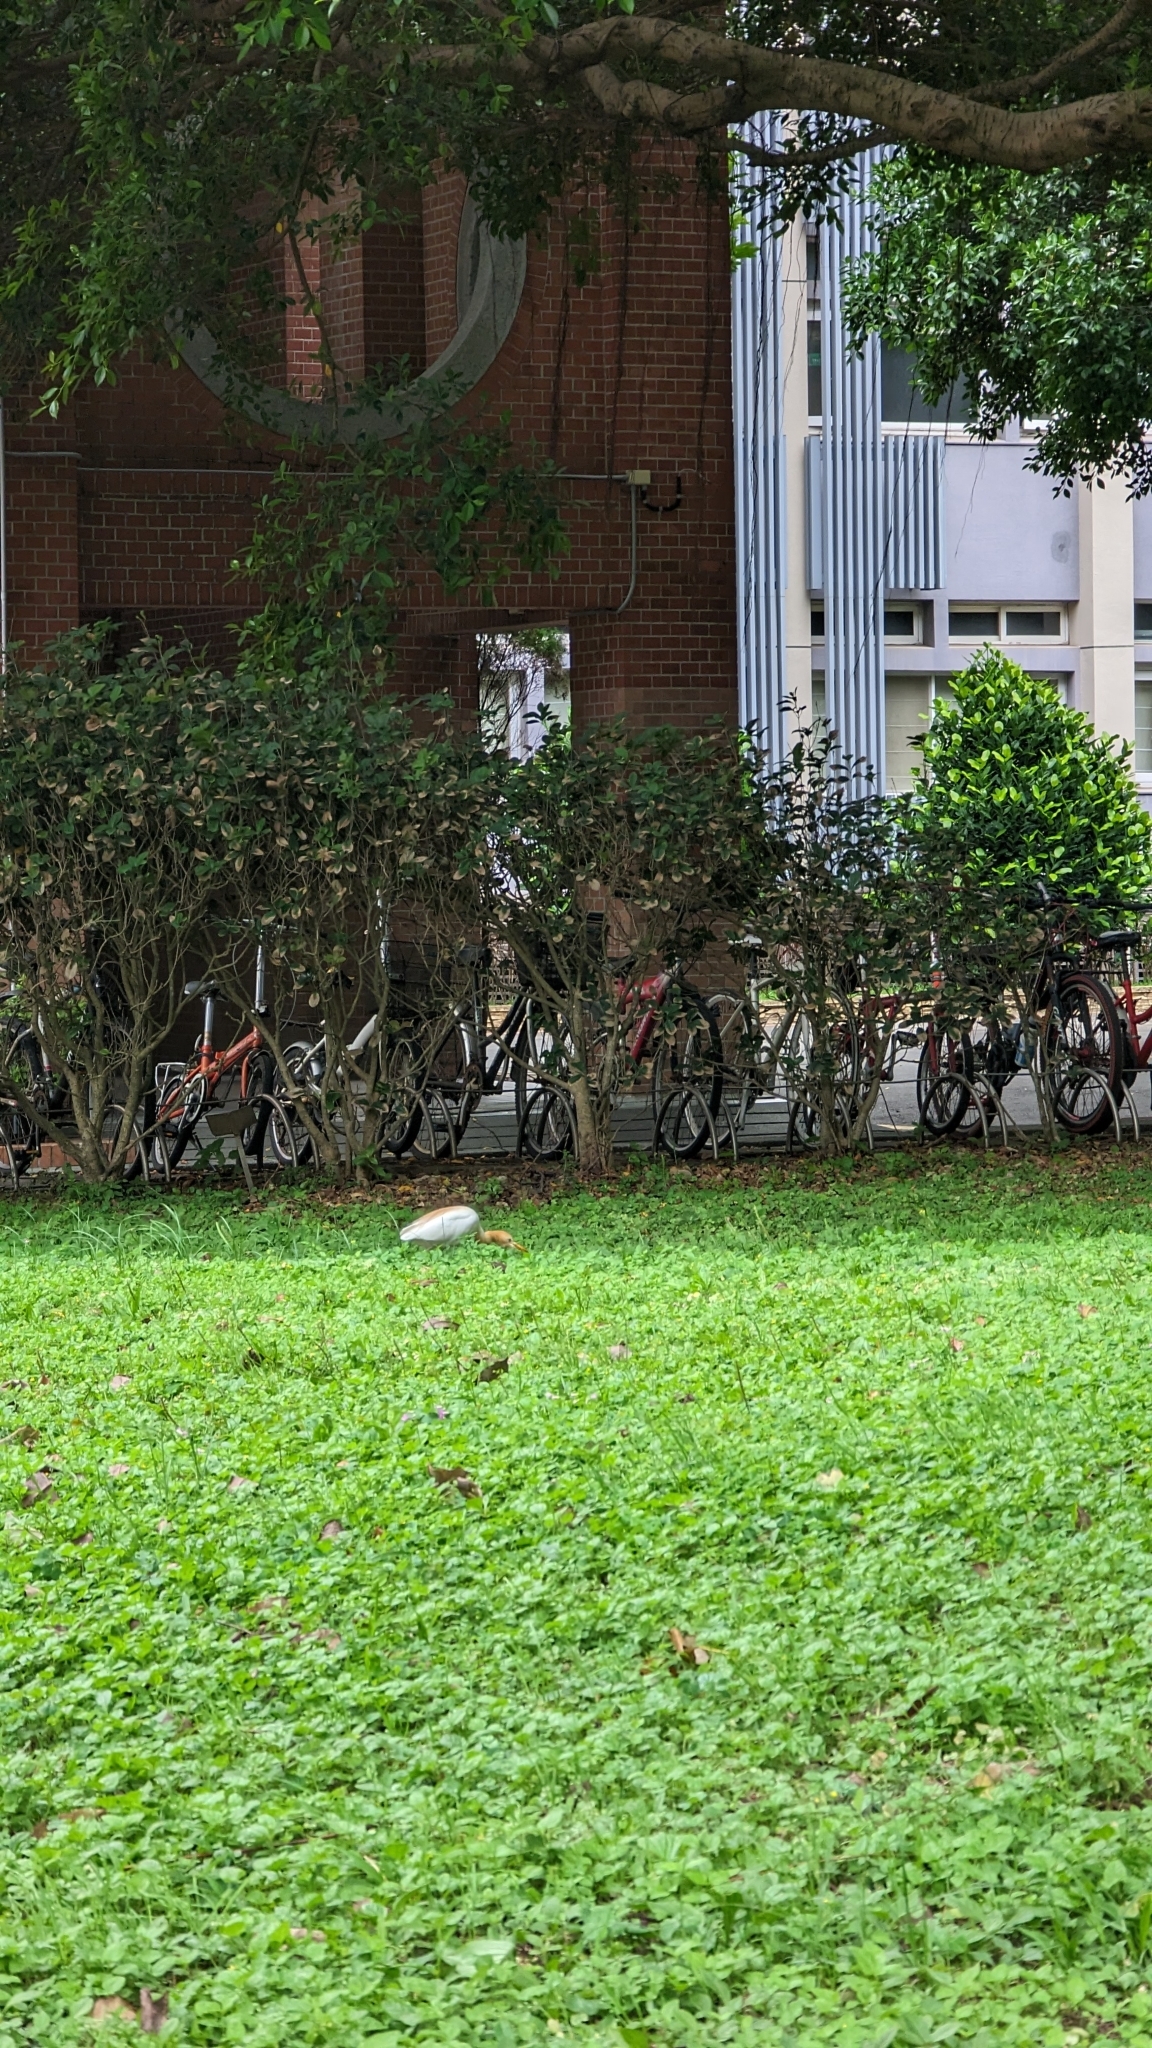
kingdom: Animalia
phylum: Chordata
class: Aves
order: Pelecaniformes
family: Ardeidae
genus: Bubulcus
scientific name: Bubulcus coromandus
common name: Eastern cattle egret
